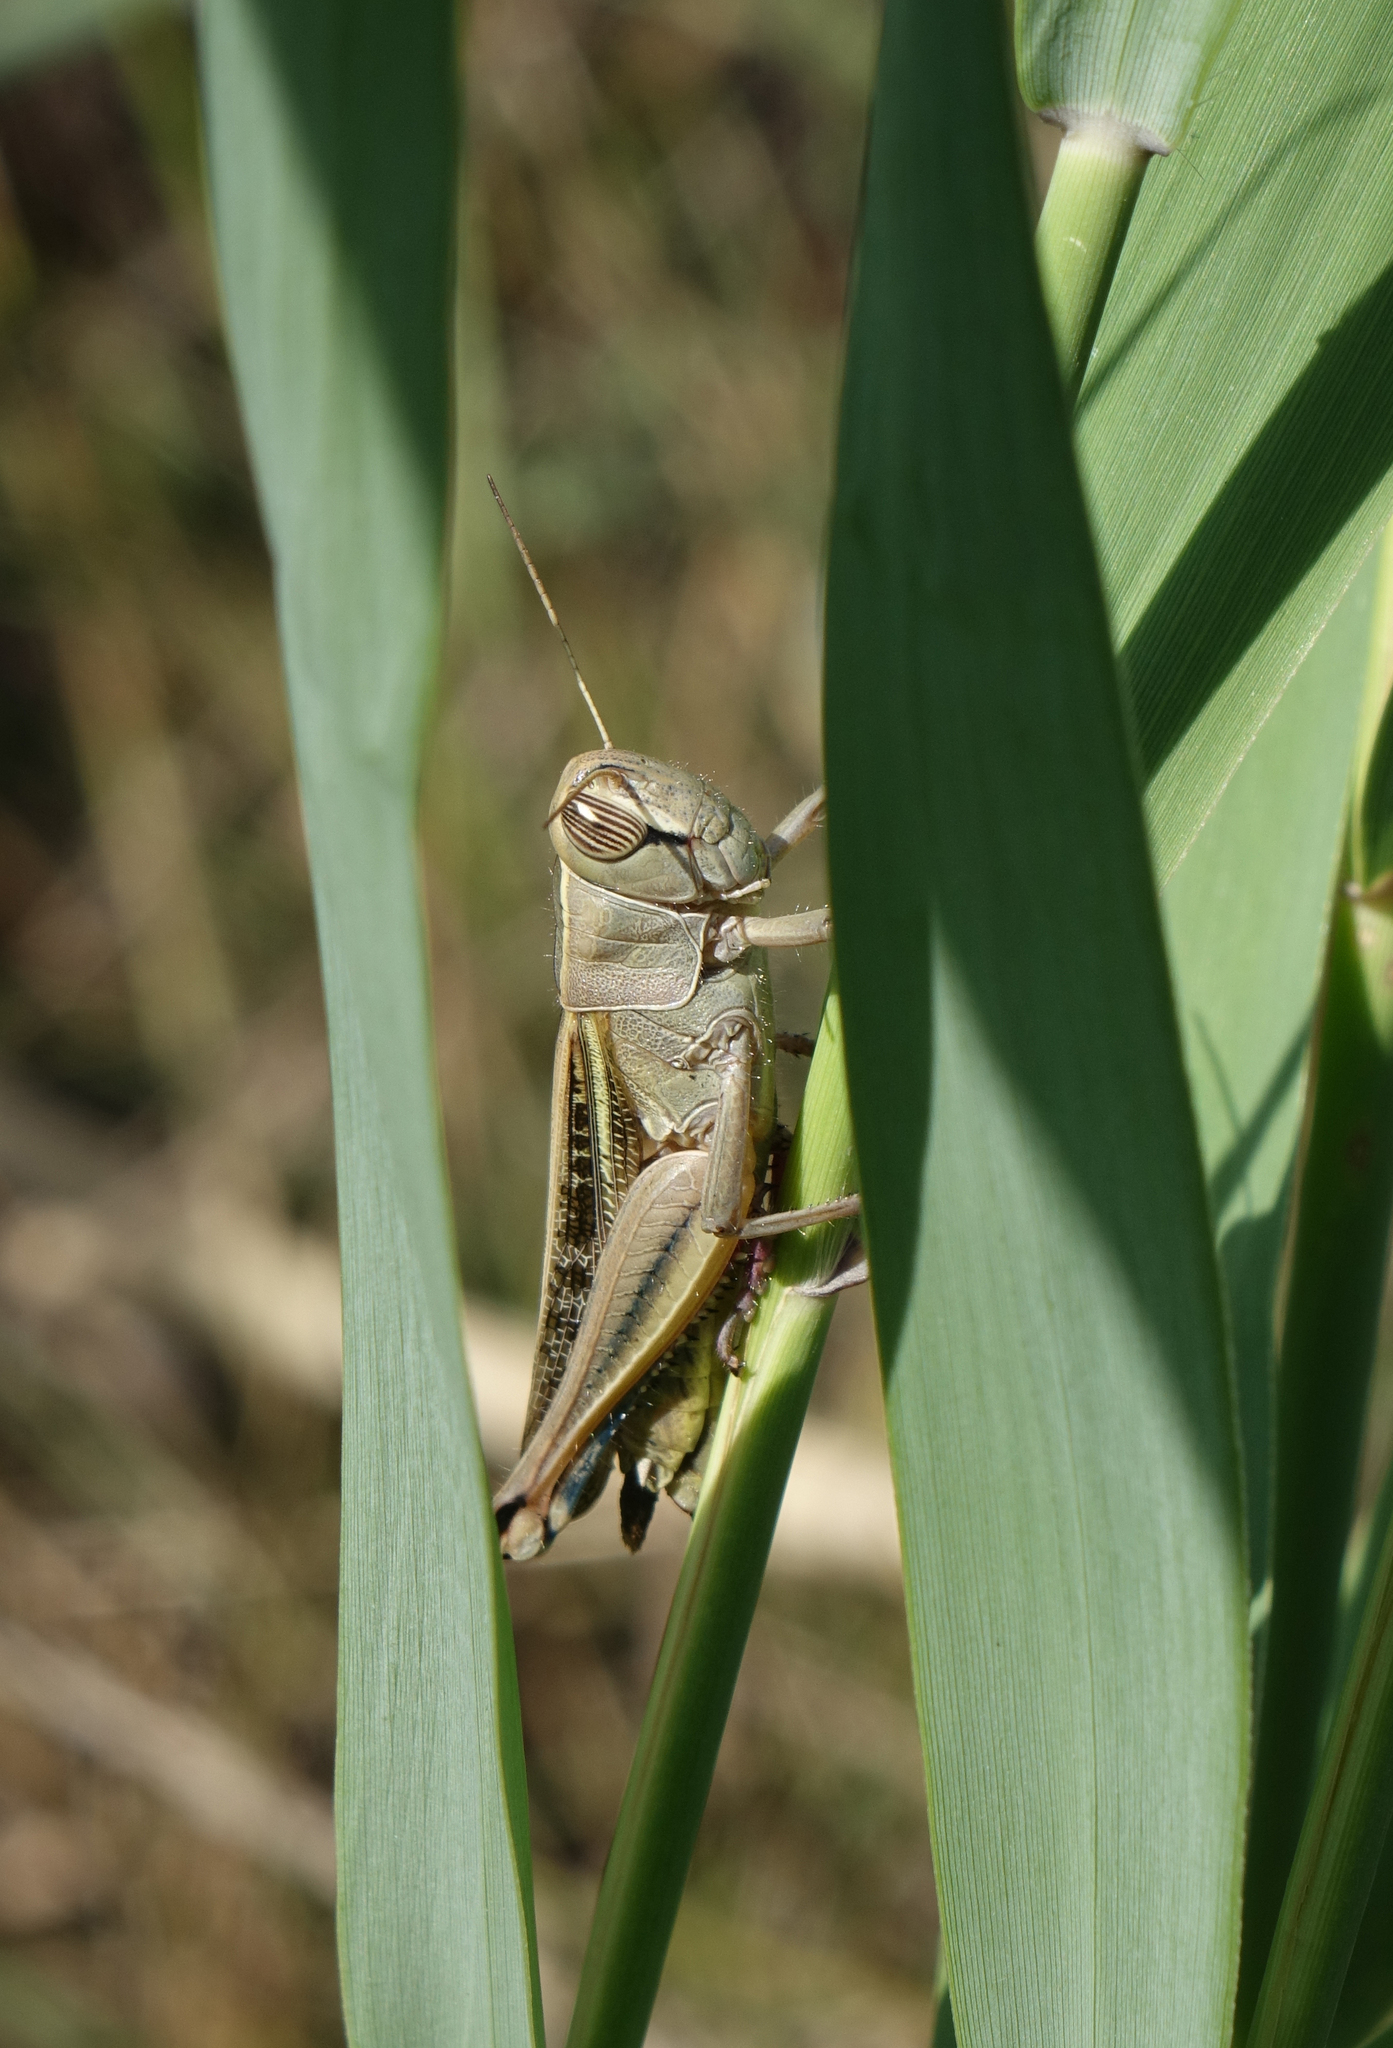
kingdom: Animalia
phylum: Arthropoda
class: Insecta
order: Orthoptera
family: Acrididae
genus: Eyprepocnemis
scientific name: Eyprepocnemis plorans
